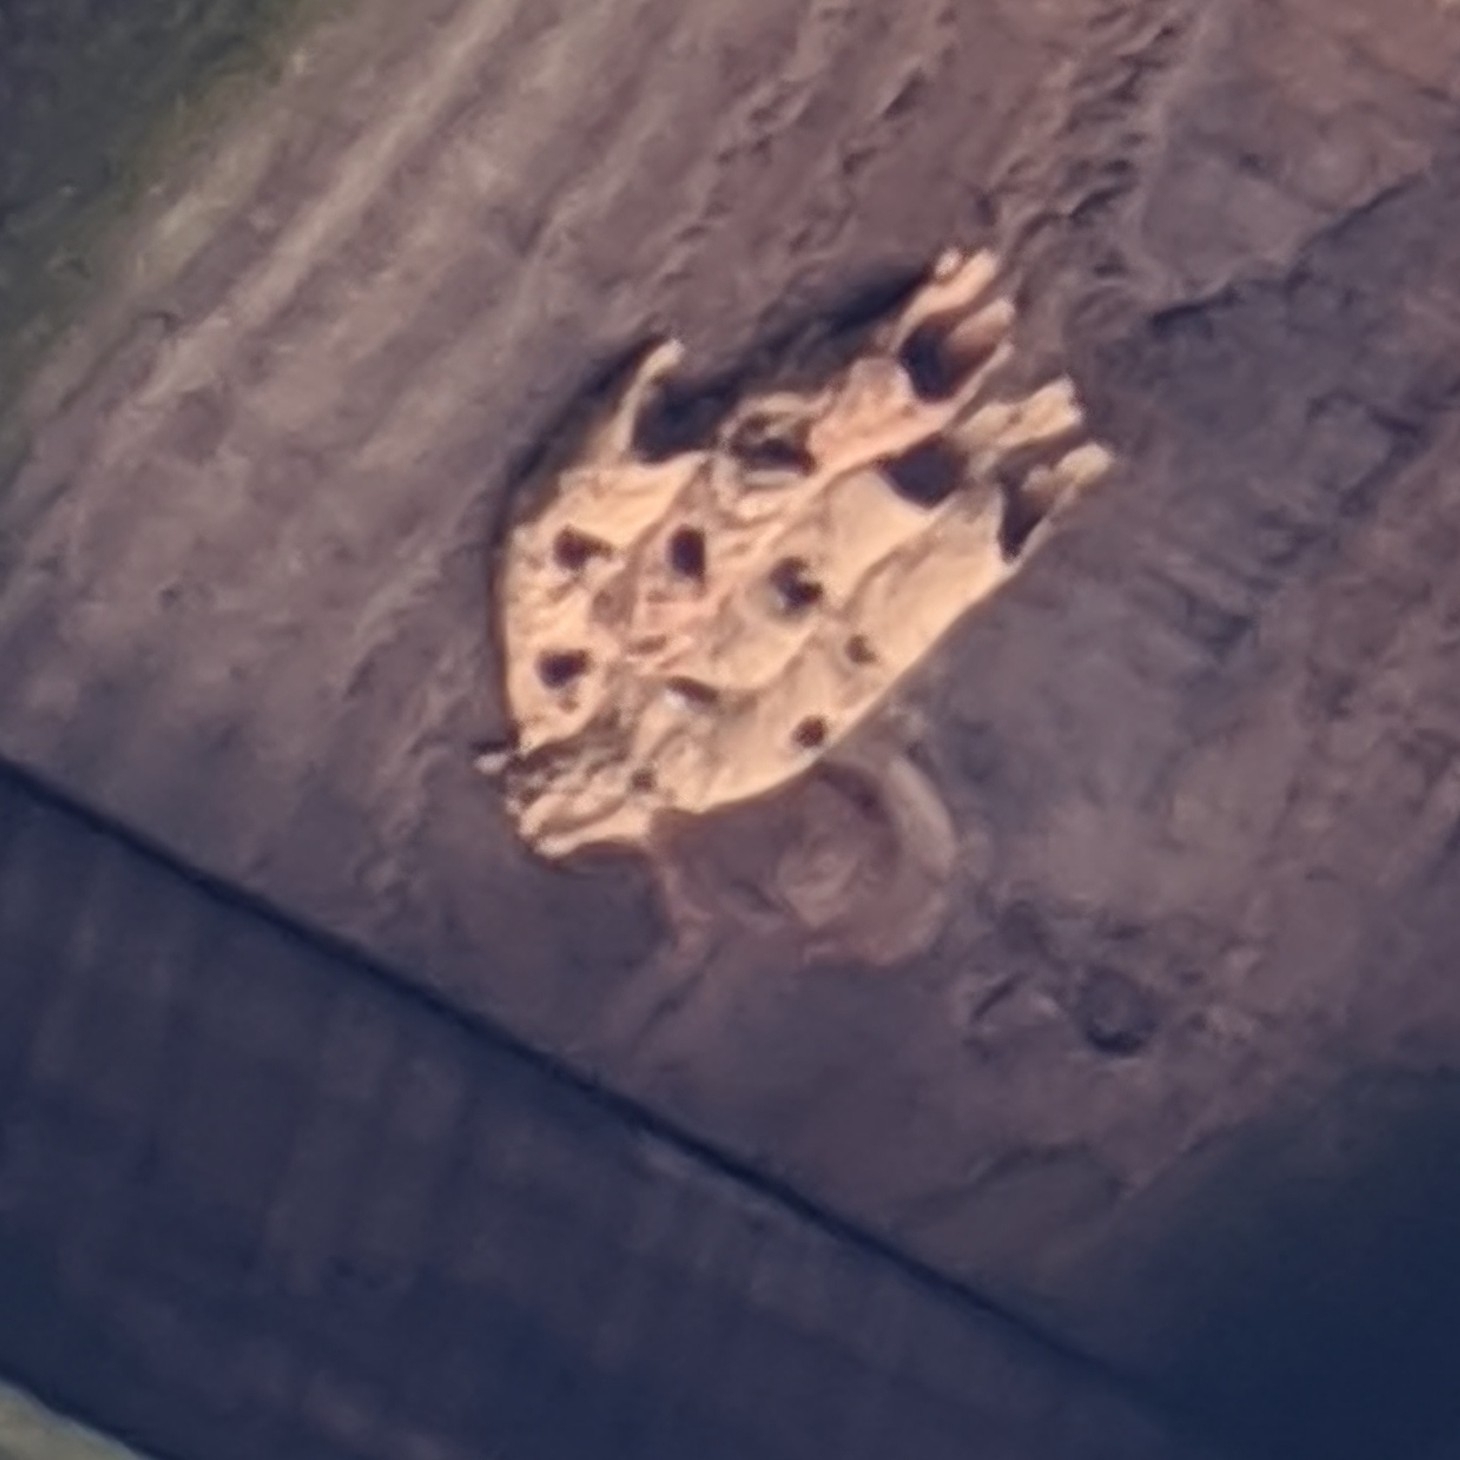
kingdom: Animalia
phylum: Arthropoda
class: Insecta
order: Hymenoptera
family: Crabronidae
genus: Trypoxylon
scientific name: Trypoxylon politum
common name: Organ-pipe mud-dauber wasp
